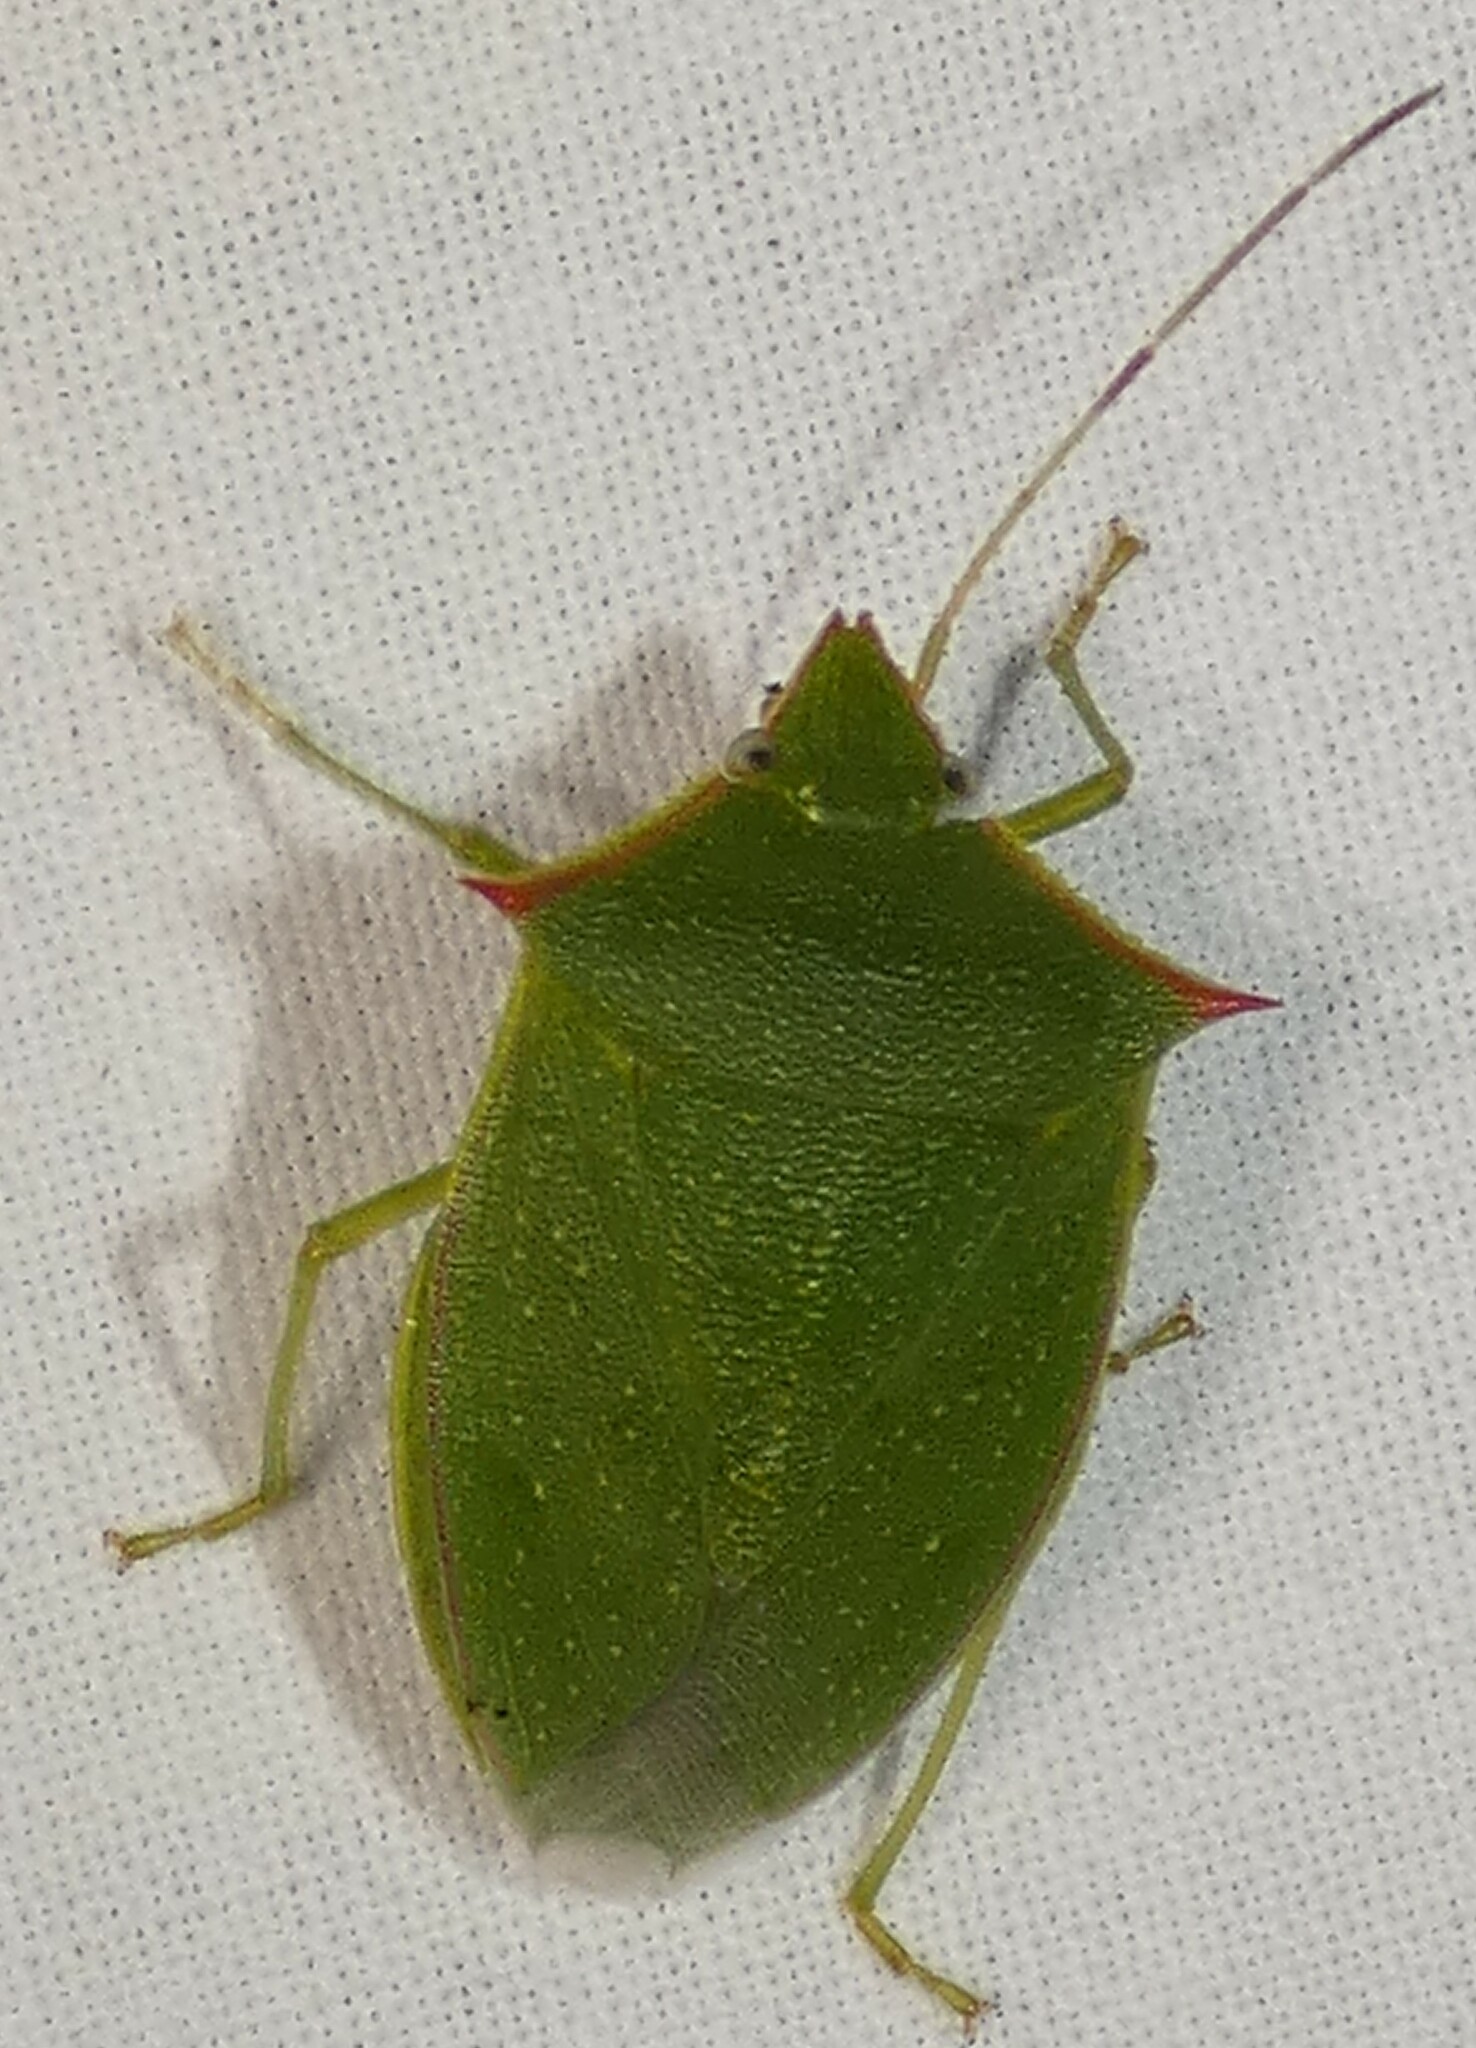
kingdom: Animalia
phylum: Arthropoda
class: Insecta
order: Hemiptera
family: Pentatomidae
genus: Loxa
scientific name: Loxa flavicollis
